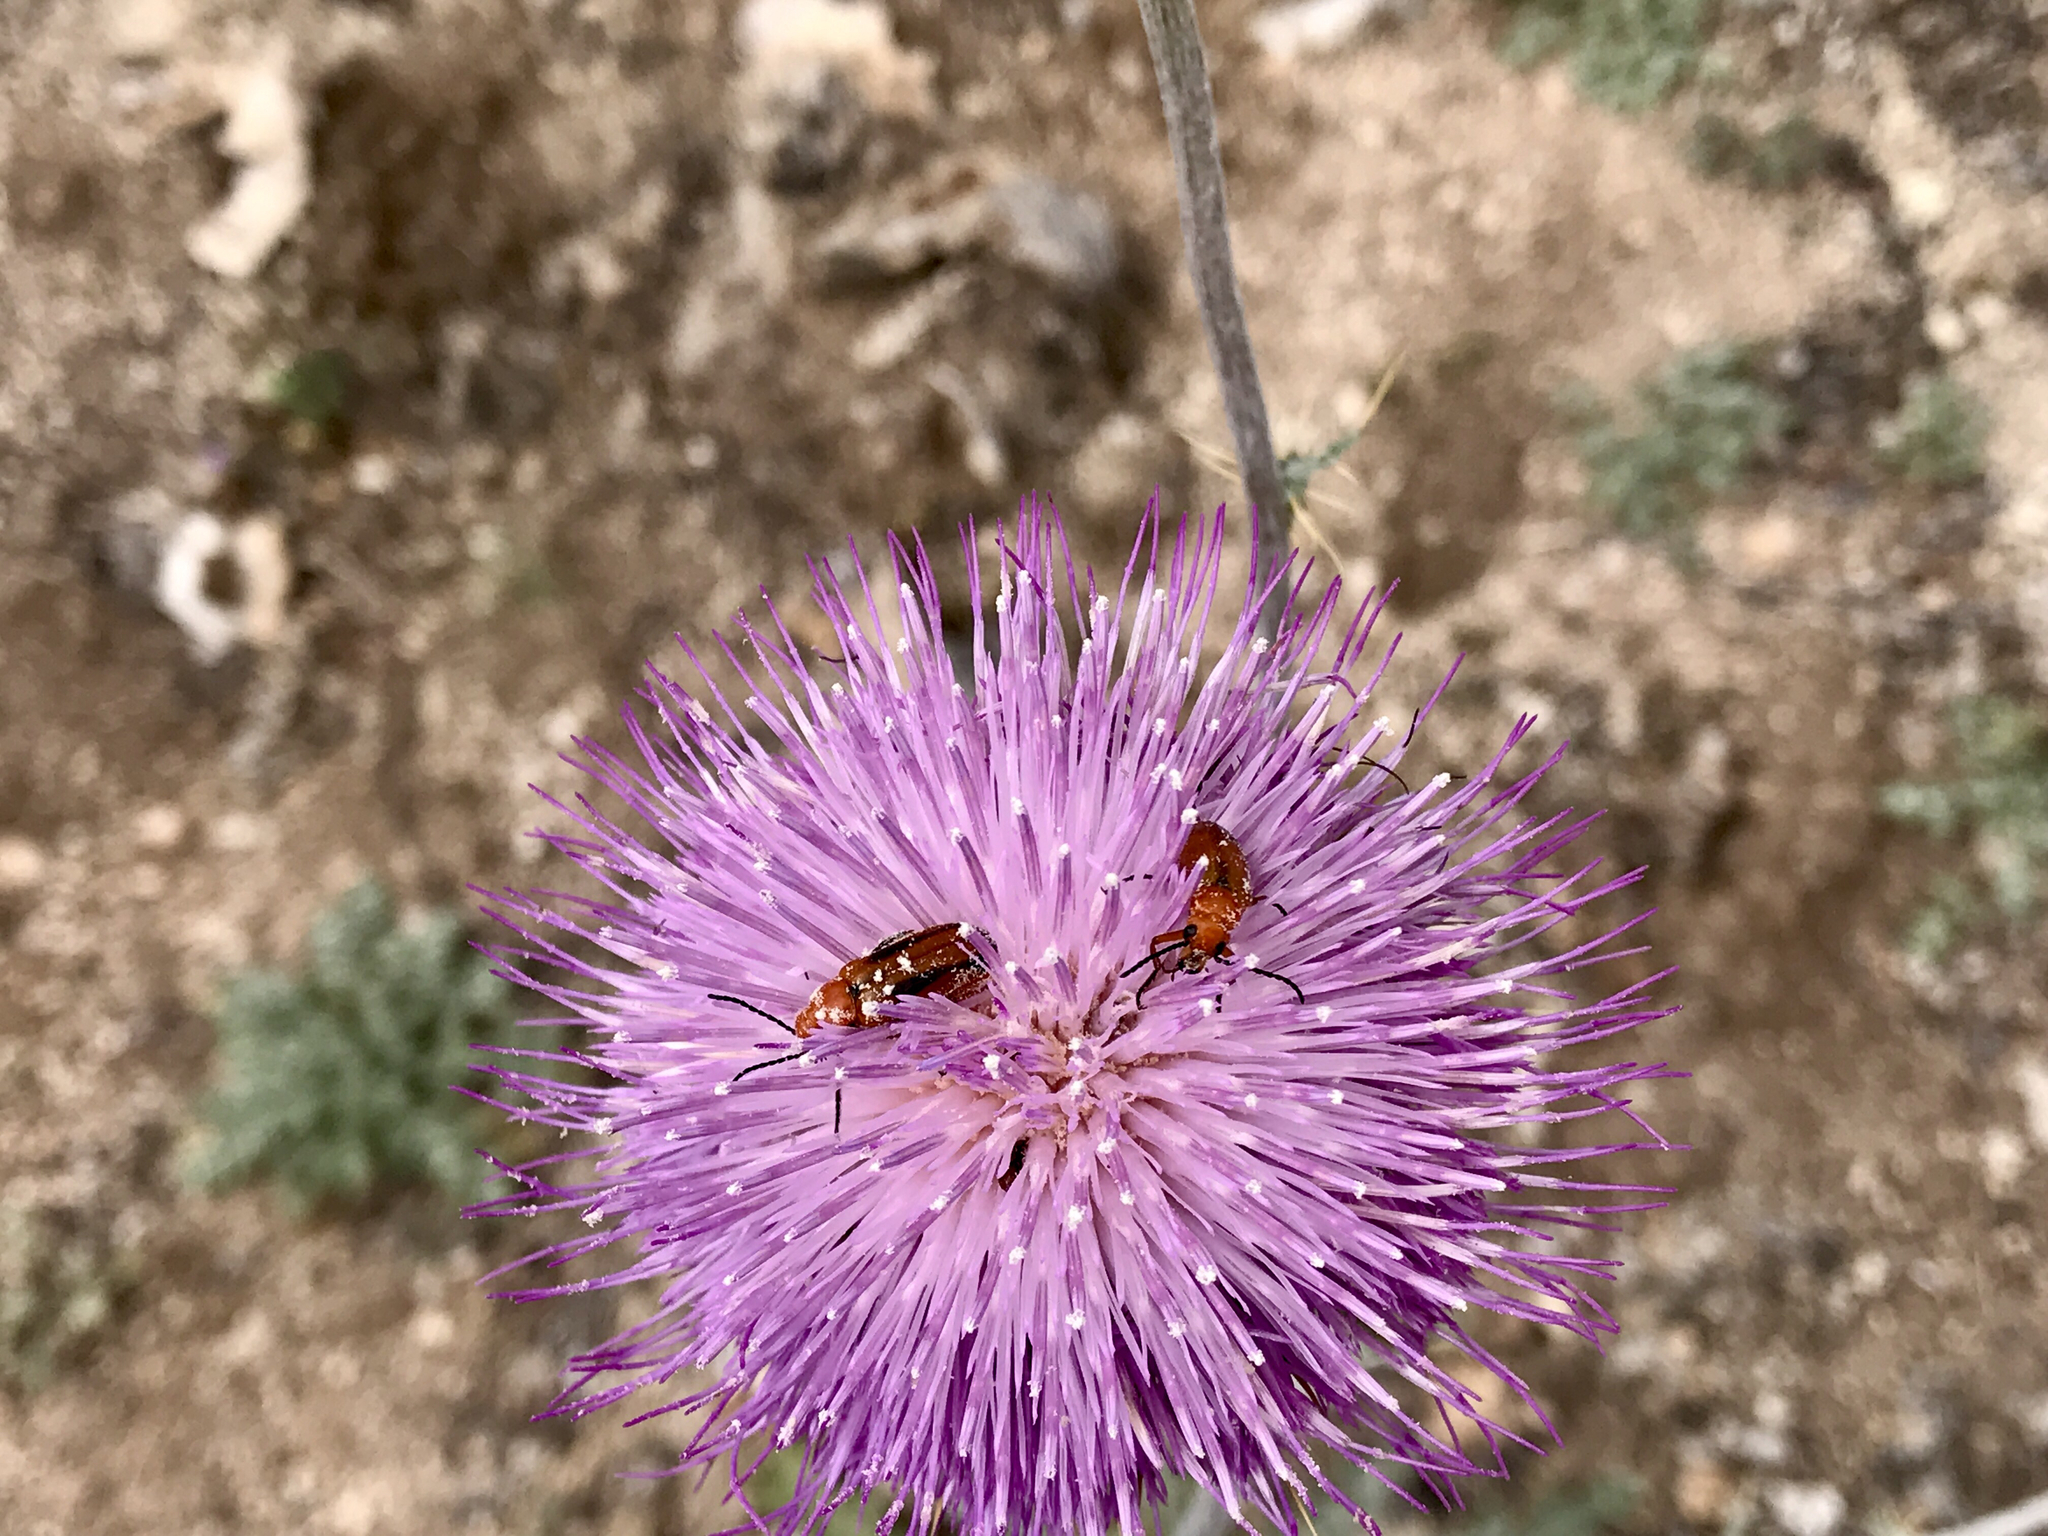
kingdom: Plantae
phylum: Tracheophyta
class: Magnoliopsida
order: Asterales
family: Asteraceae
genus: Cirsium
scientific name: Cirsium neomexicanum
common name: New mexico thistle
